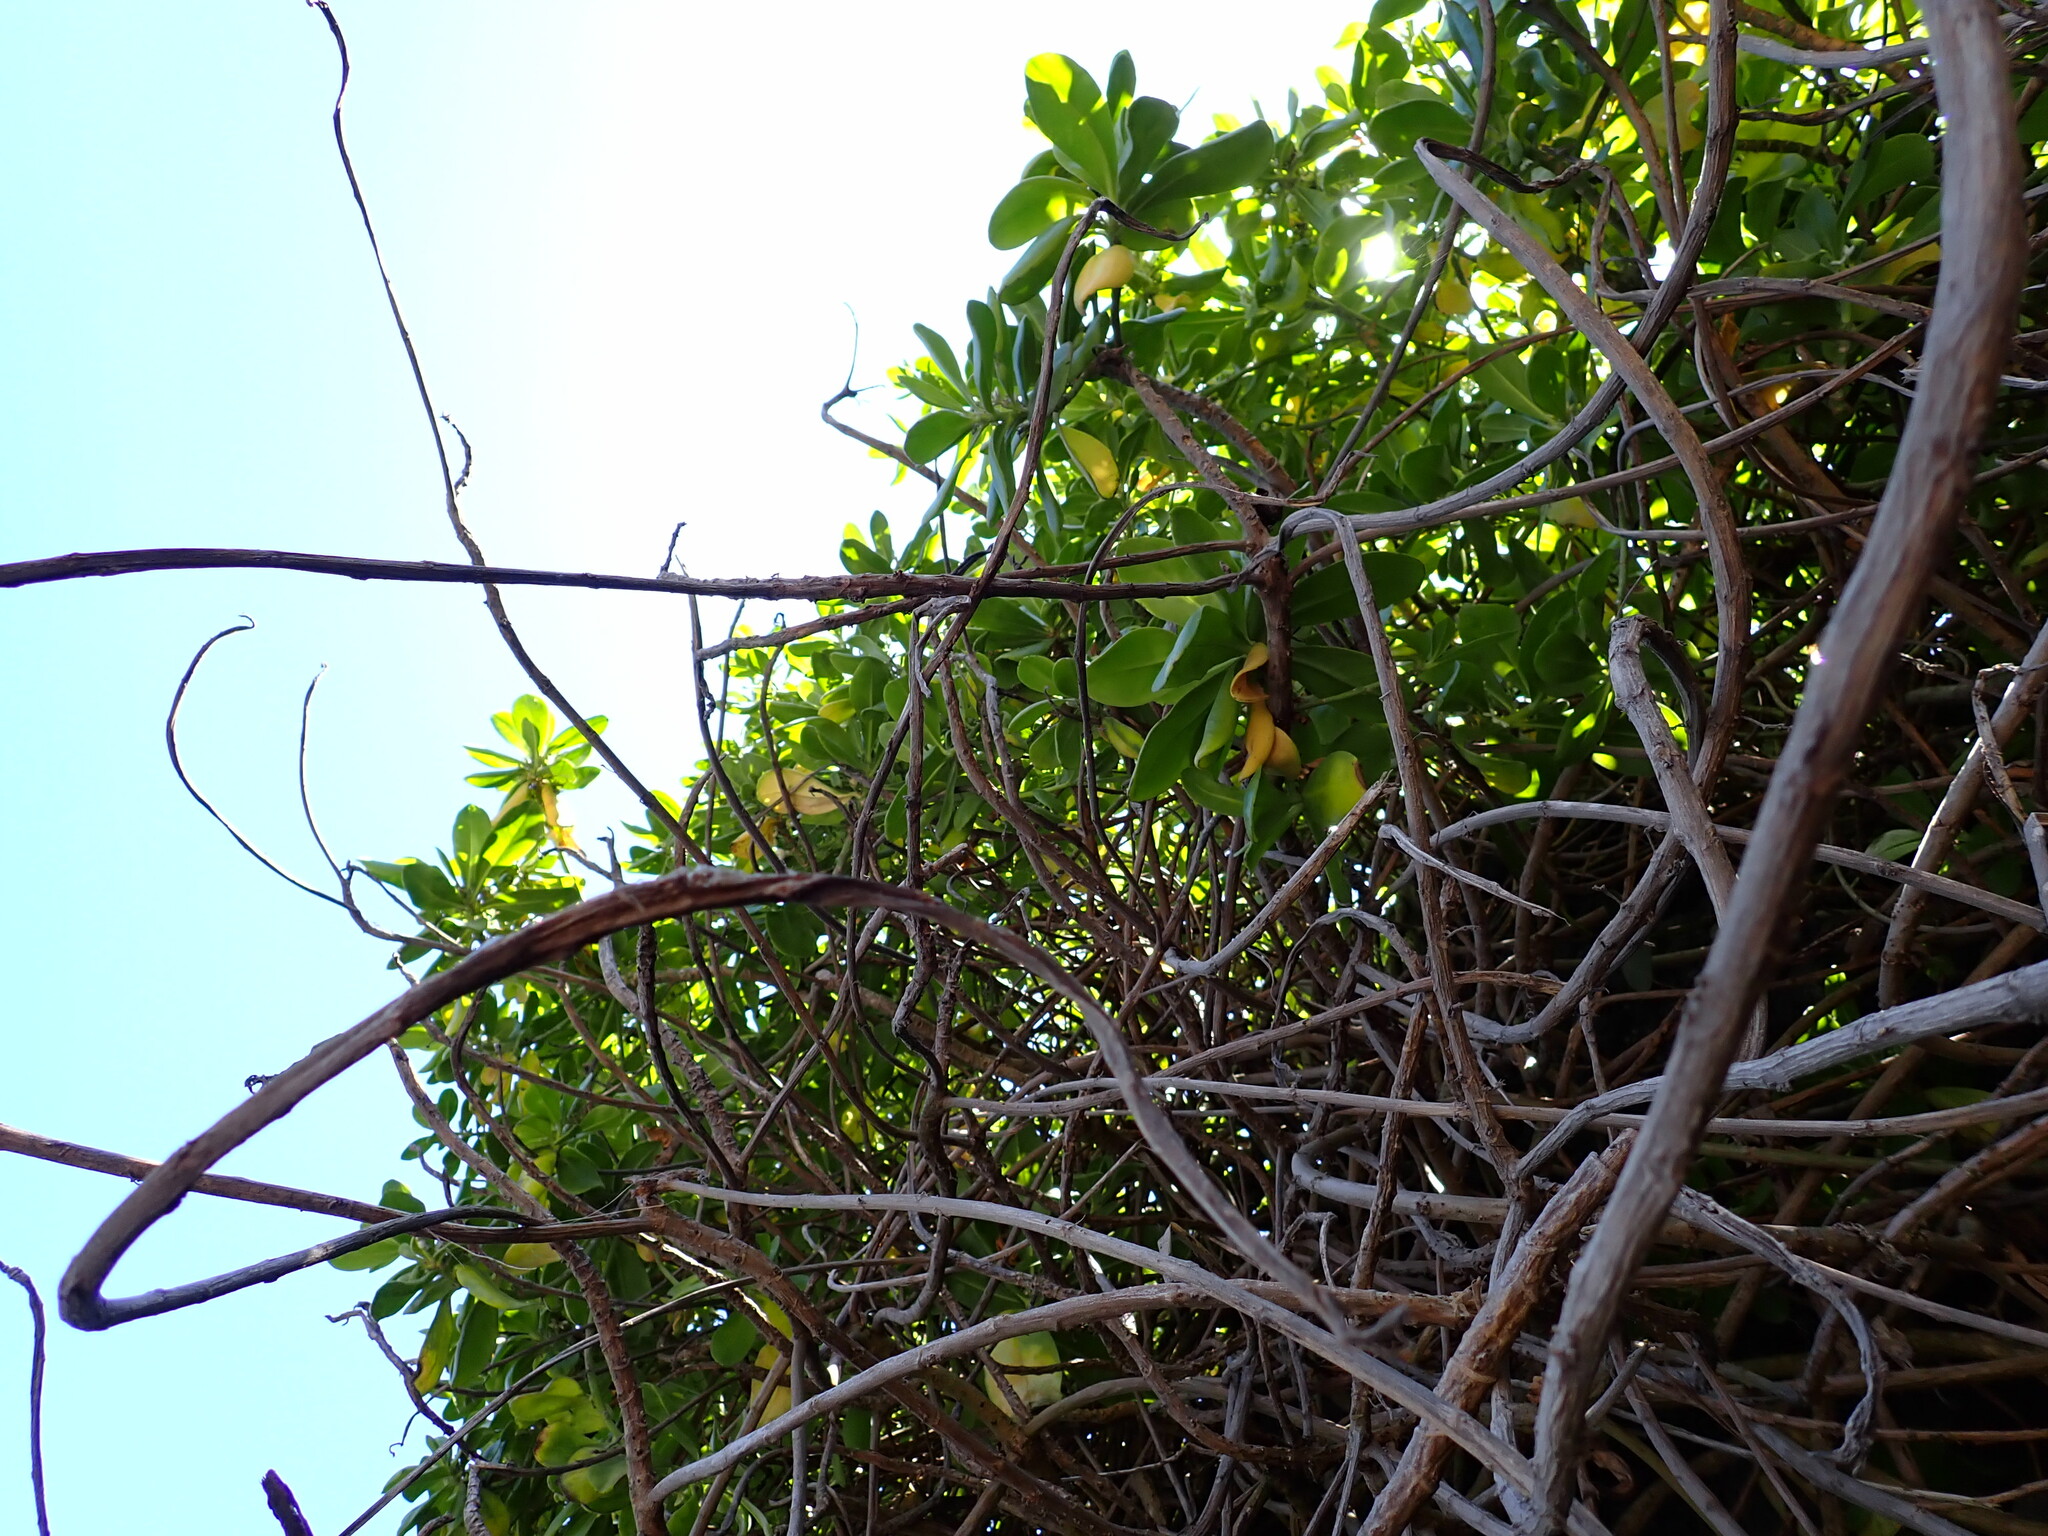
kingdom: Plantae
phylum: Tracheophyta
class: Magnoliopsida
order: Asterales
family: Goodeniaceae
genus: Scaevola
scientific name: Scaevola taccada
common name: Sea lettucetree
